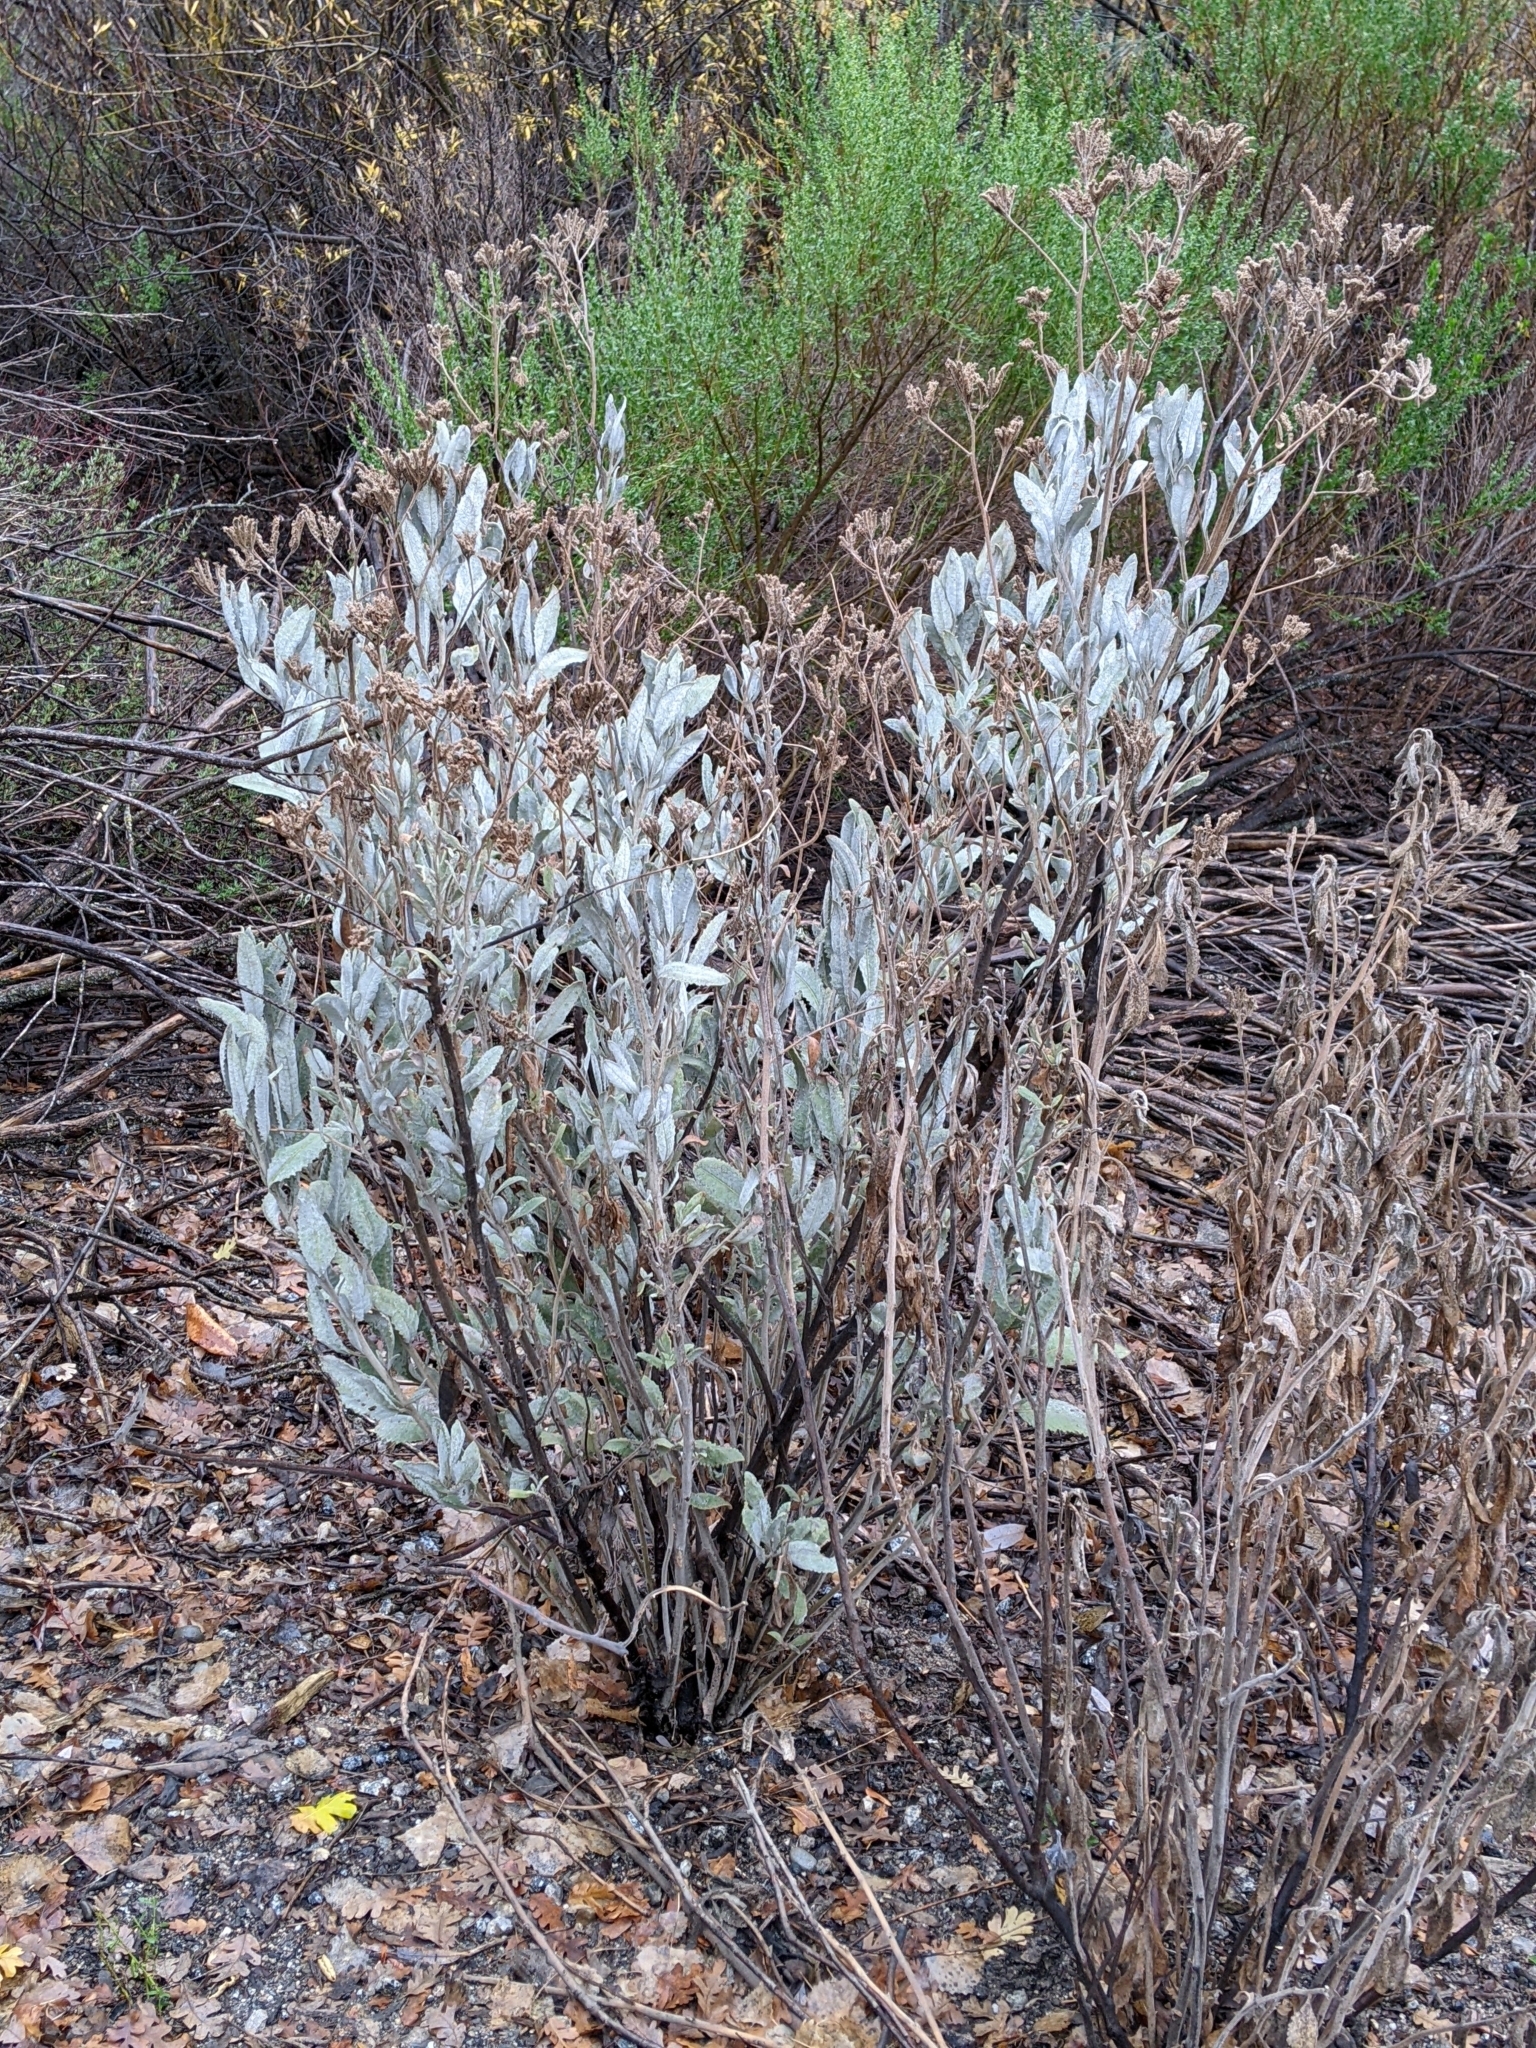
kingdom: Plantae
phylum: Tracheophyta
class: Magnoliopsida
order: Boraginales
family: Namaceae
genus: Eriodictyon
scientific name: Eriodictyon tomentosum
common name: Woolly yerba-santa
